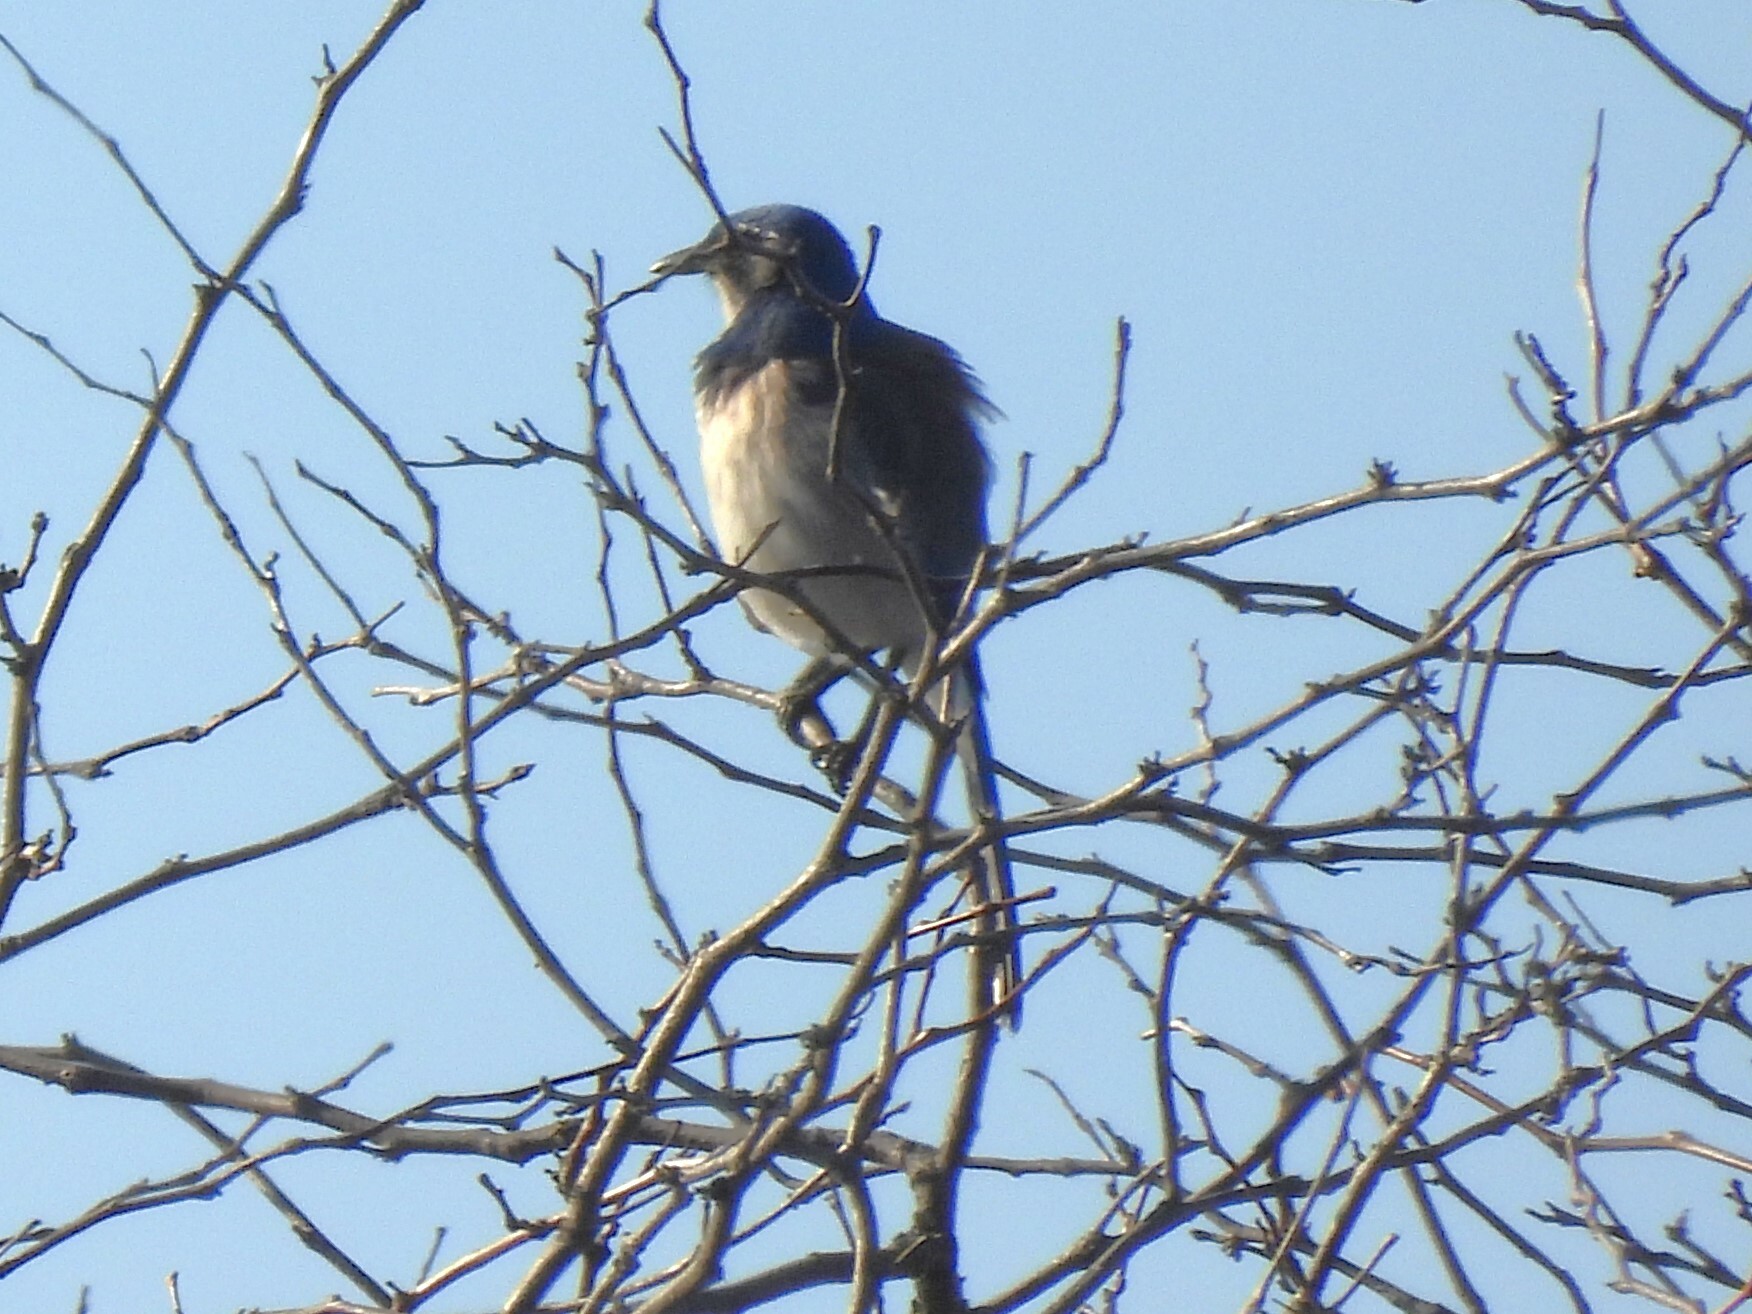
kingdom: Animalia
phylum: Chordata
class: Aves
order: Passeriformes
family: Corvidae
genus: Aphelocoma
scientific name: Aphelocoma californica
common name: California scrub-jay
